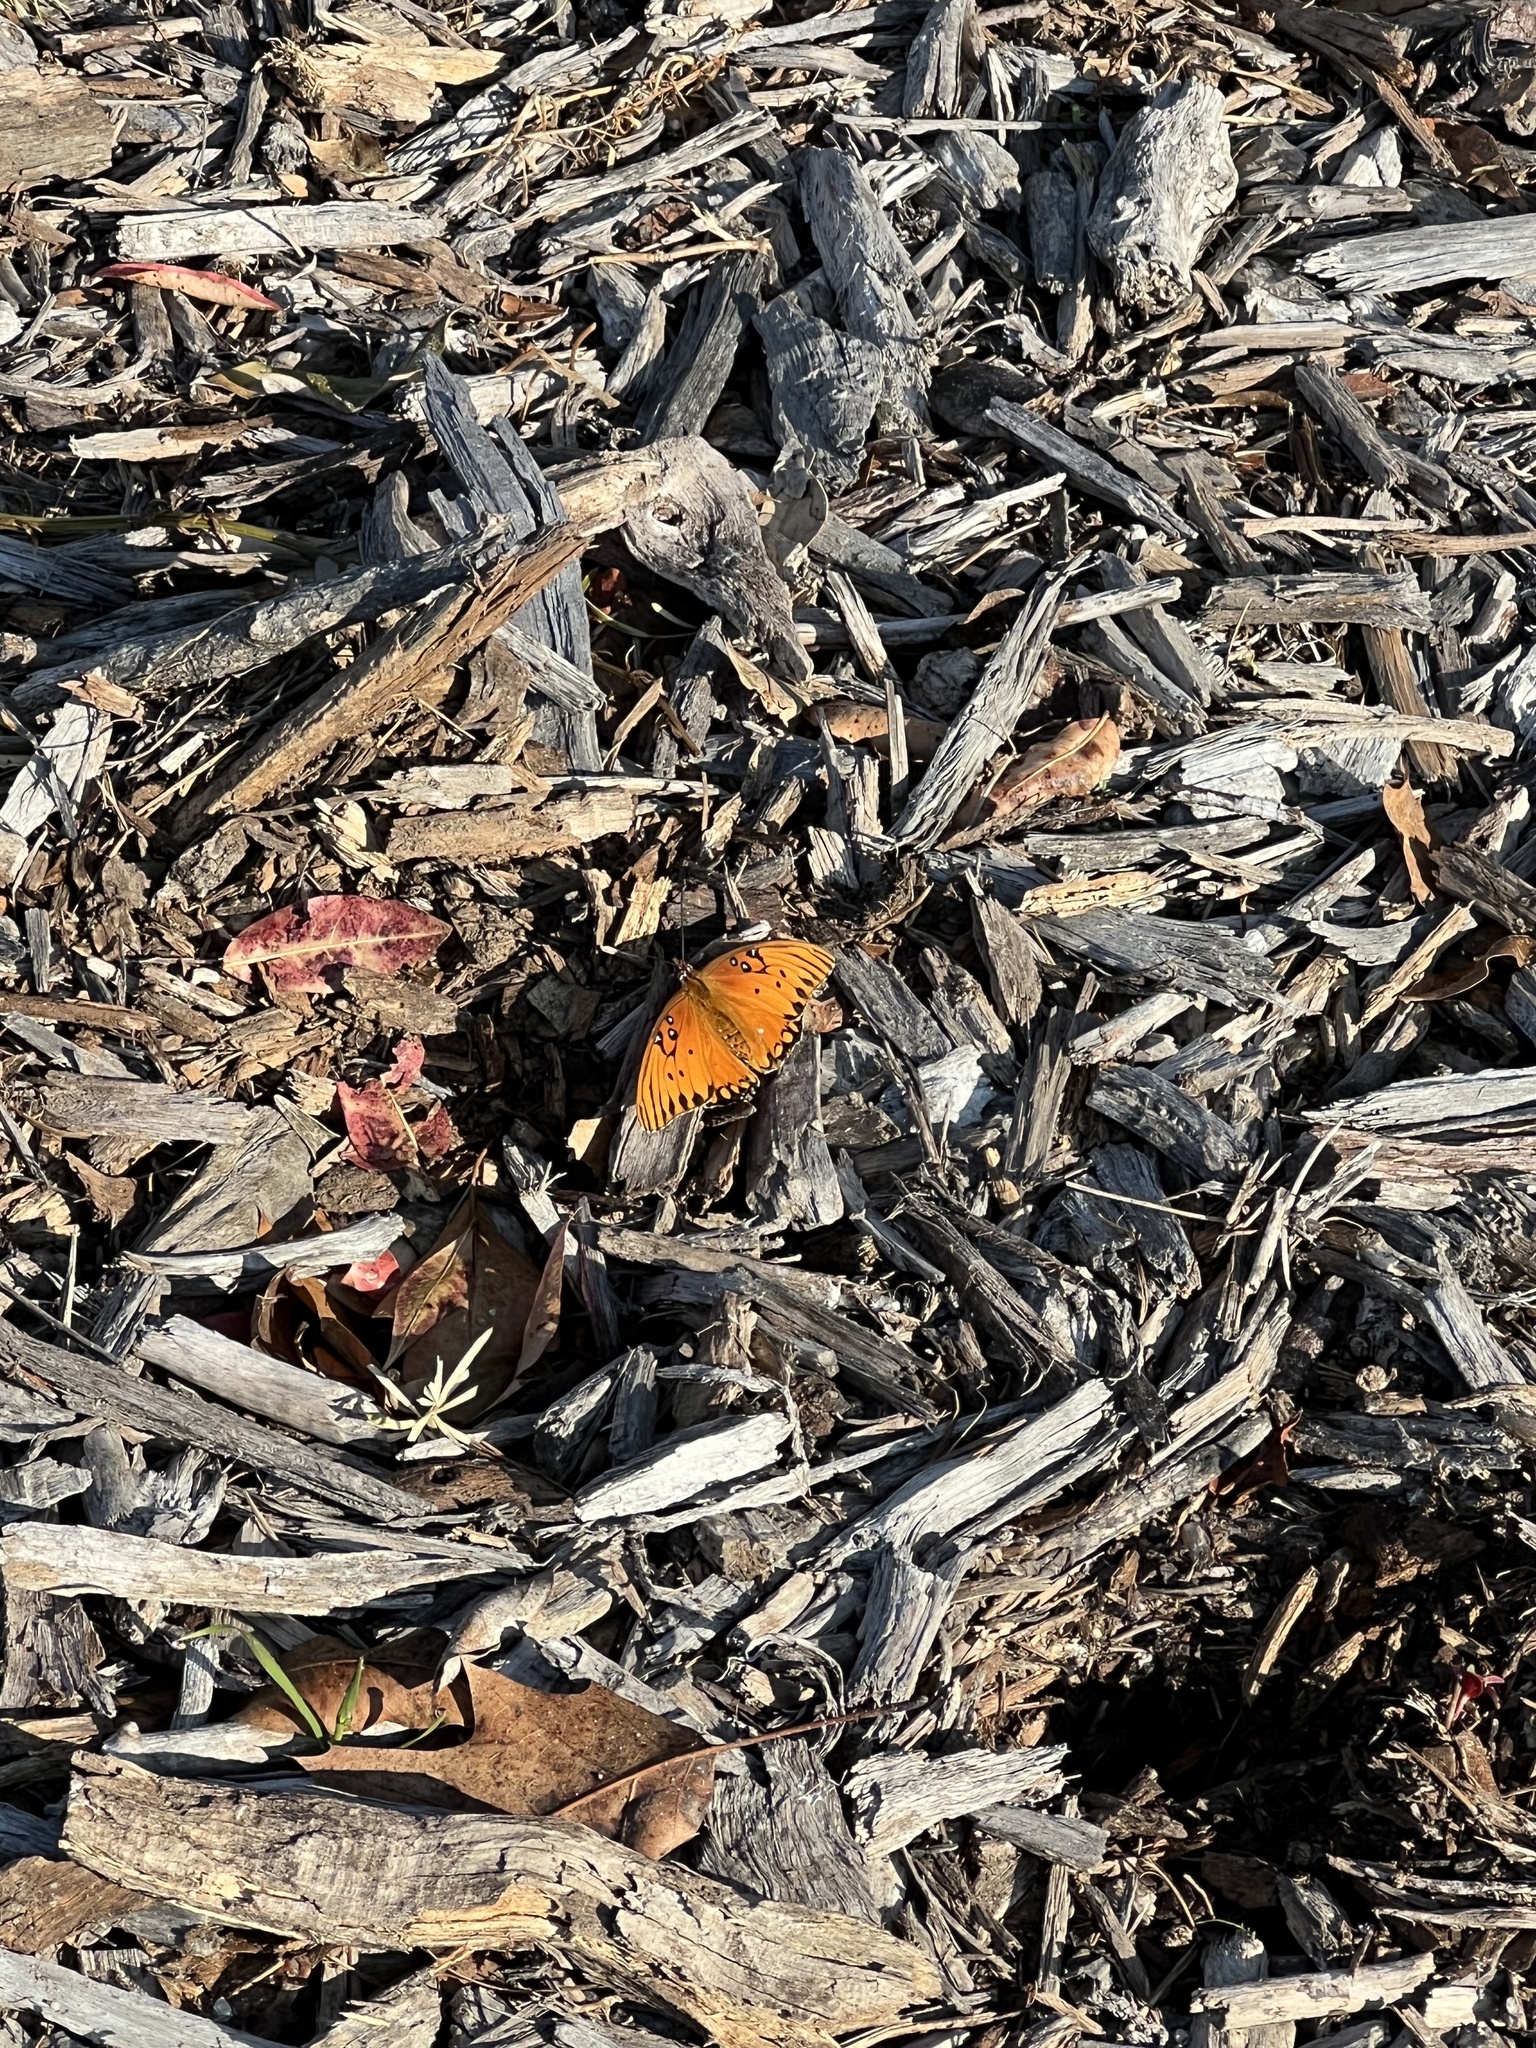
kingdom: Animalia
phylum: Arthropoda
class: Insecta
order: Lepidoptera
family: Nymphalidae
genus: Dione
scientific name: Dione vanillae
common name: Gulf fritillary
